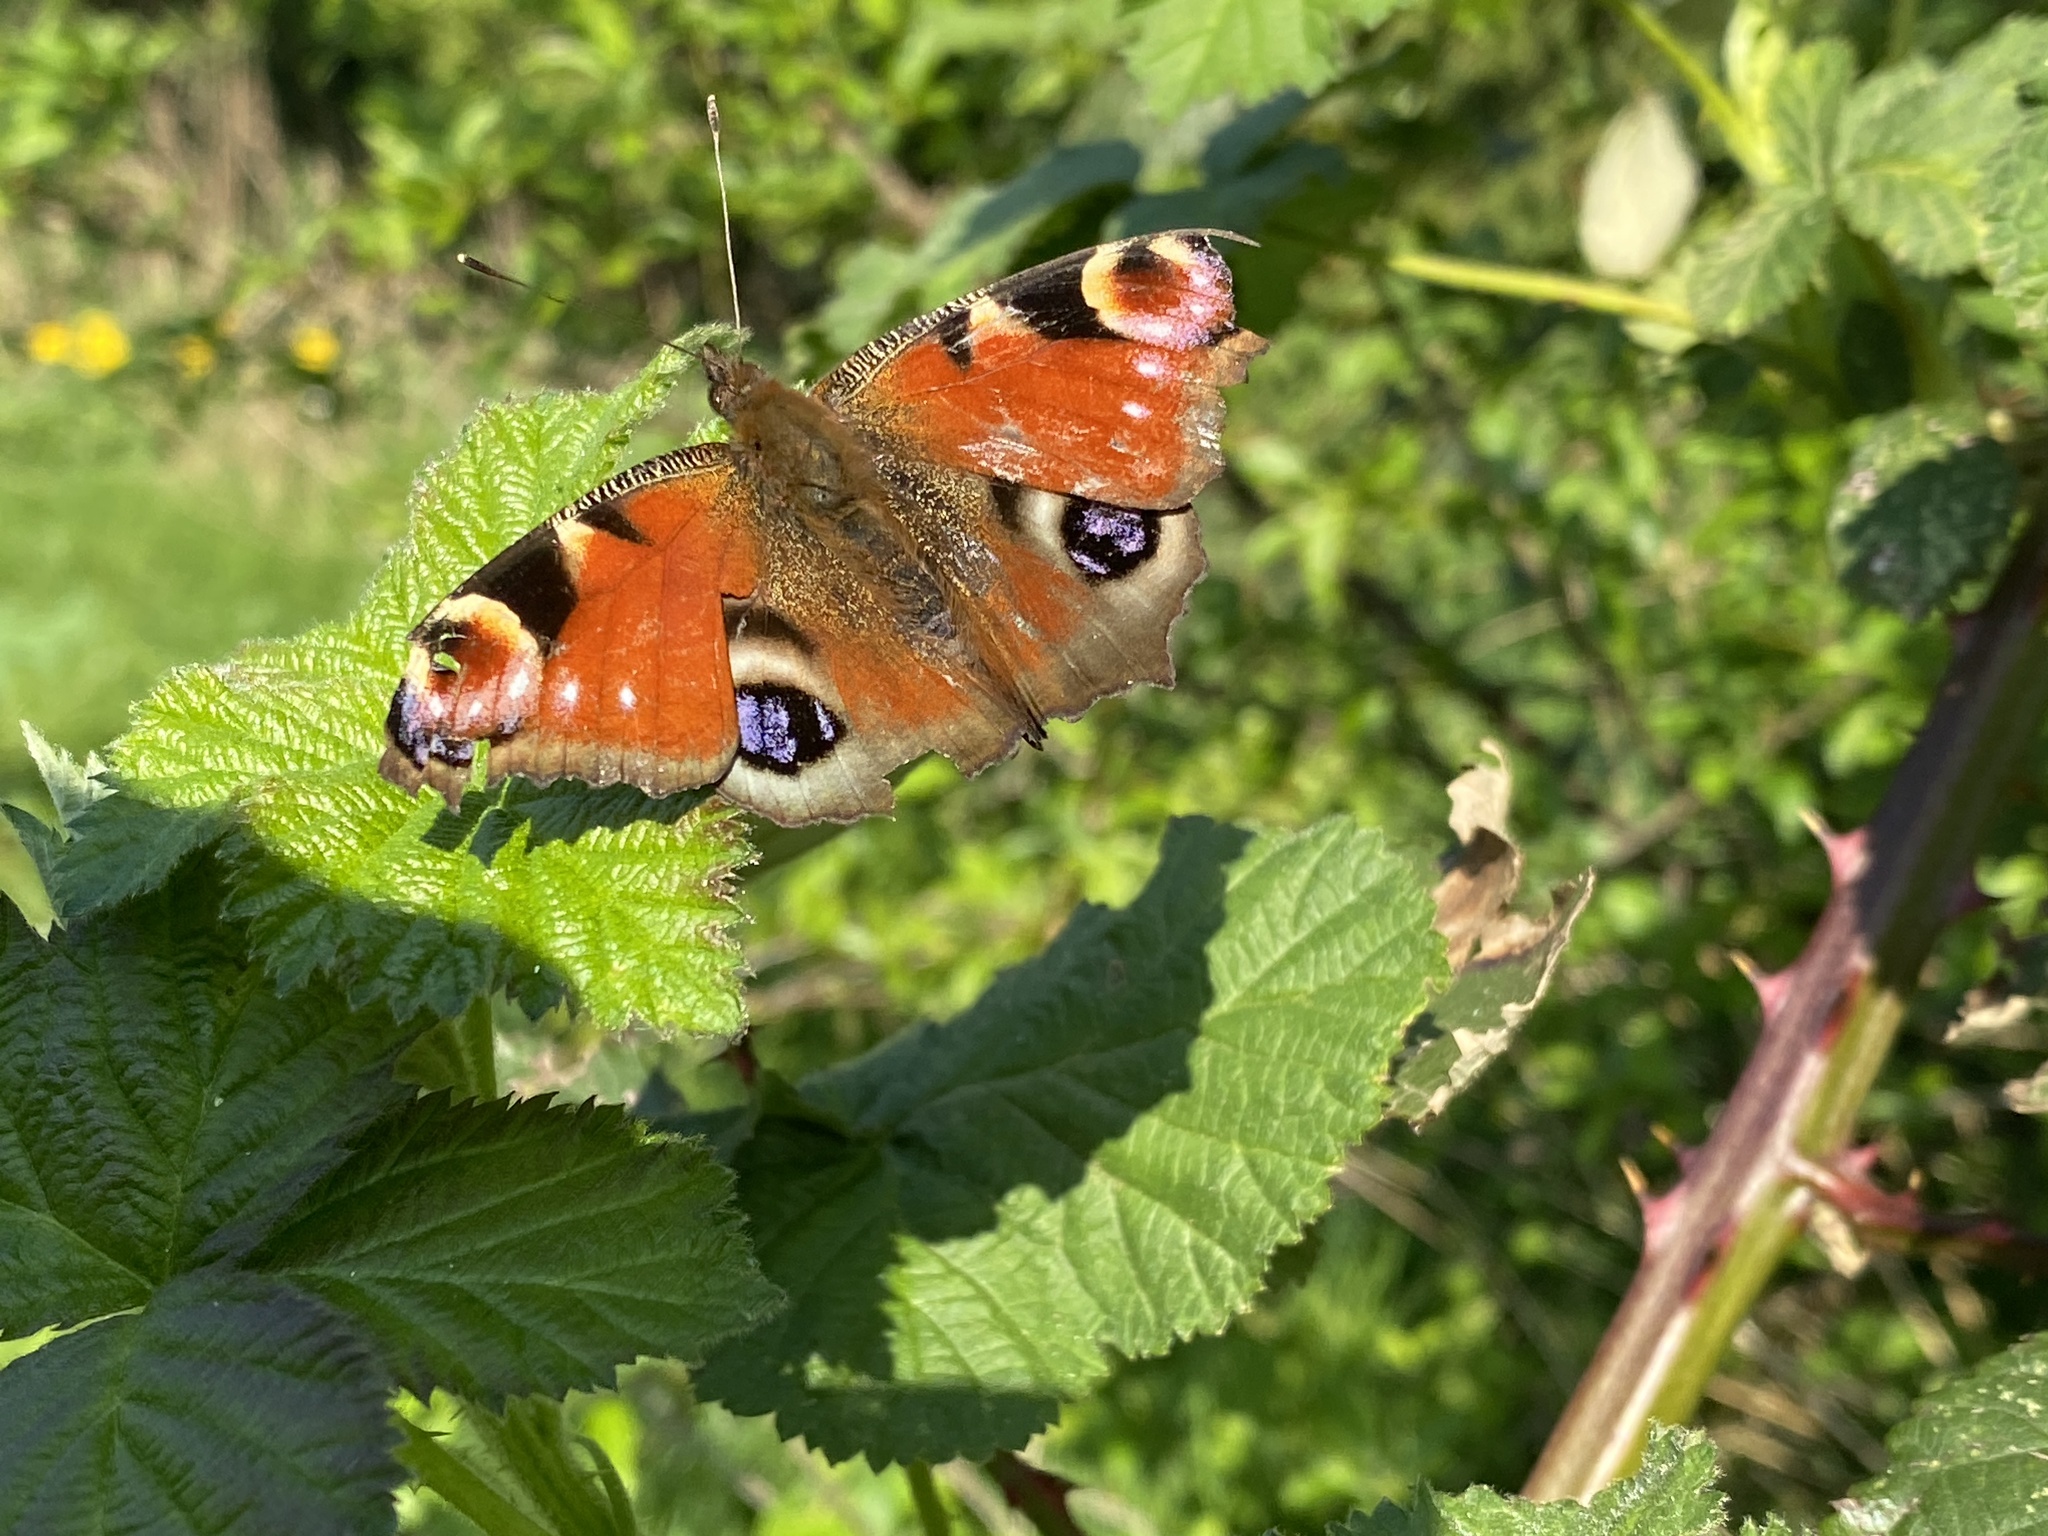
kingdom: Animalia
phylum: Arthropoda
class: Insecta
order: Lepidoptera
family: Nymphalidae
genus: Aglais
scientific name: Aglais io
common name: Peacock
